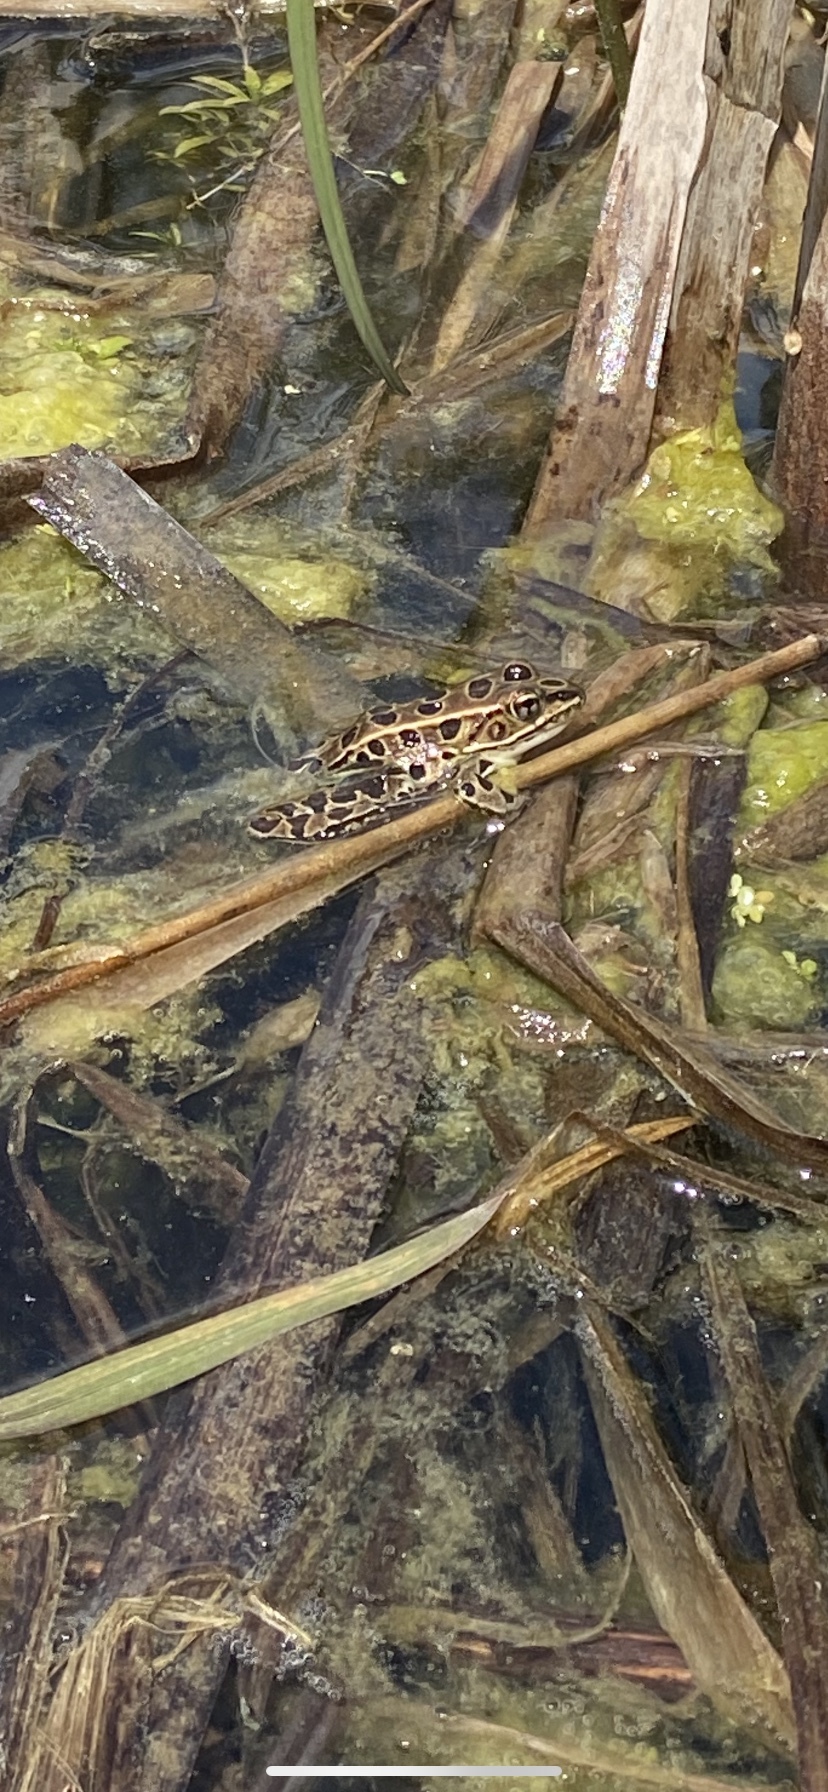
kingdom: Animalia
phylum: Chordata
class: Amphibia
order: Anura
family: Ranidae
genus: Lithobates
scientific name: Lithobates pipiens
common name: Northern leopard frog
